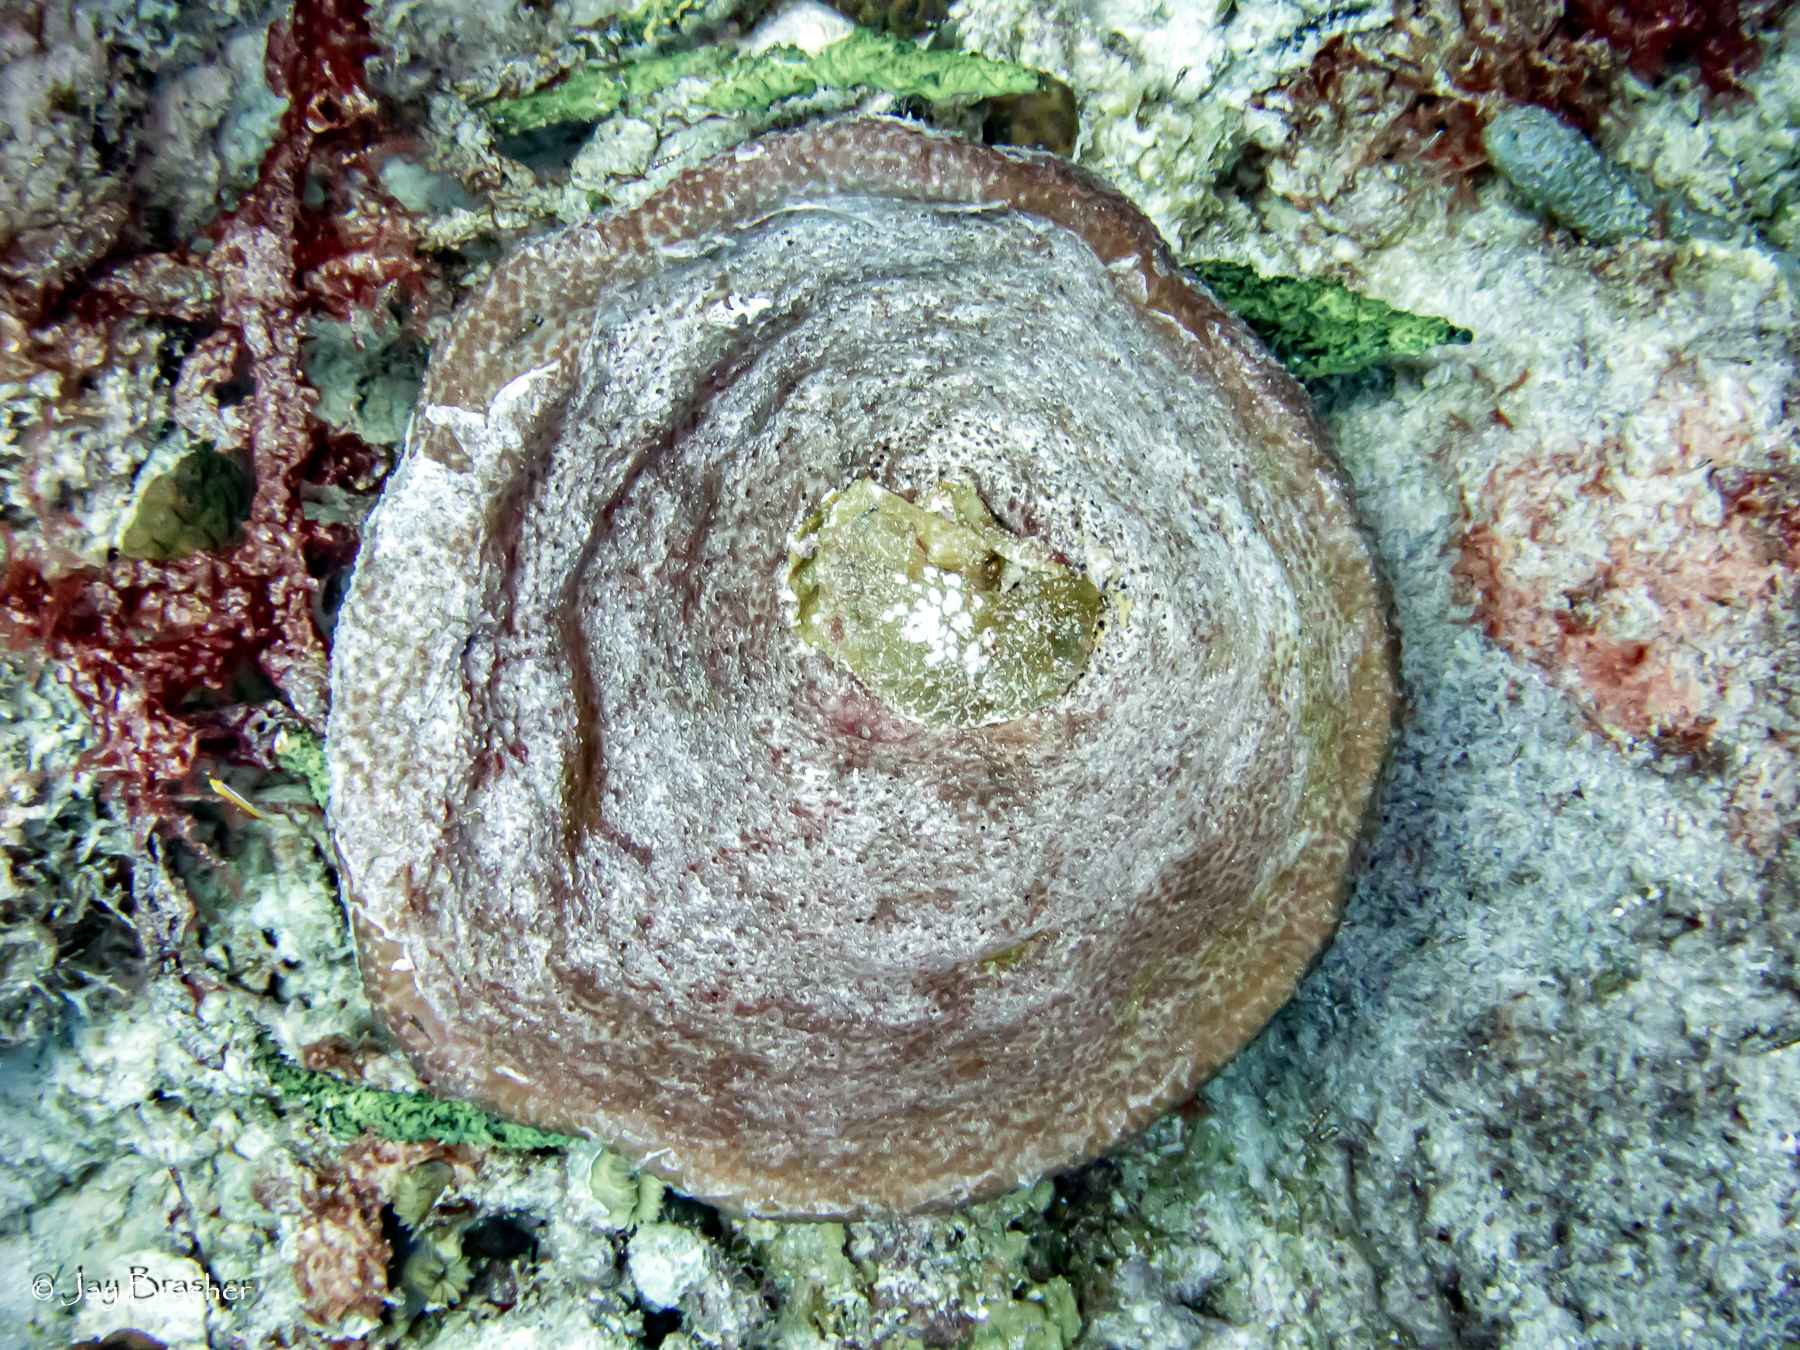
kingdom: Animalia
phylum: Porifera
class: Demospongiae
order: Dictyoceratida
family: Irciniidae
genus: Ircinia
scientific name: Ircinia campana
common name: Vase sponge
